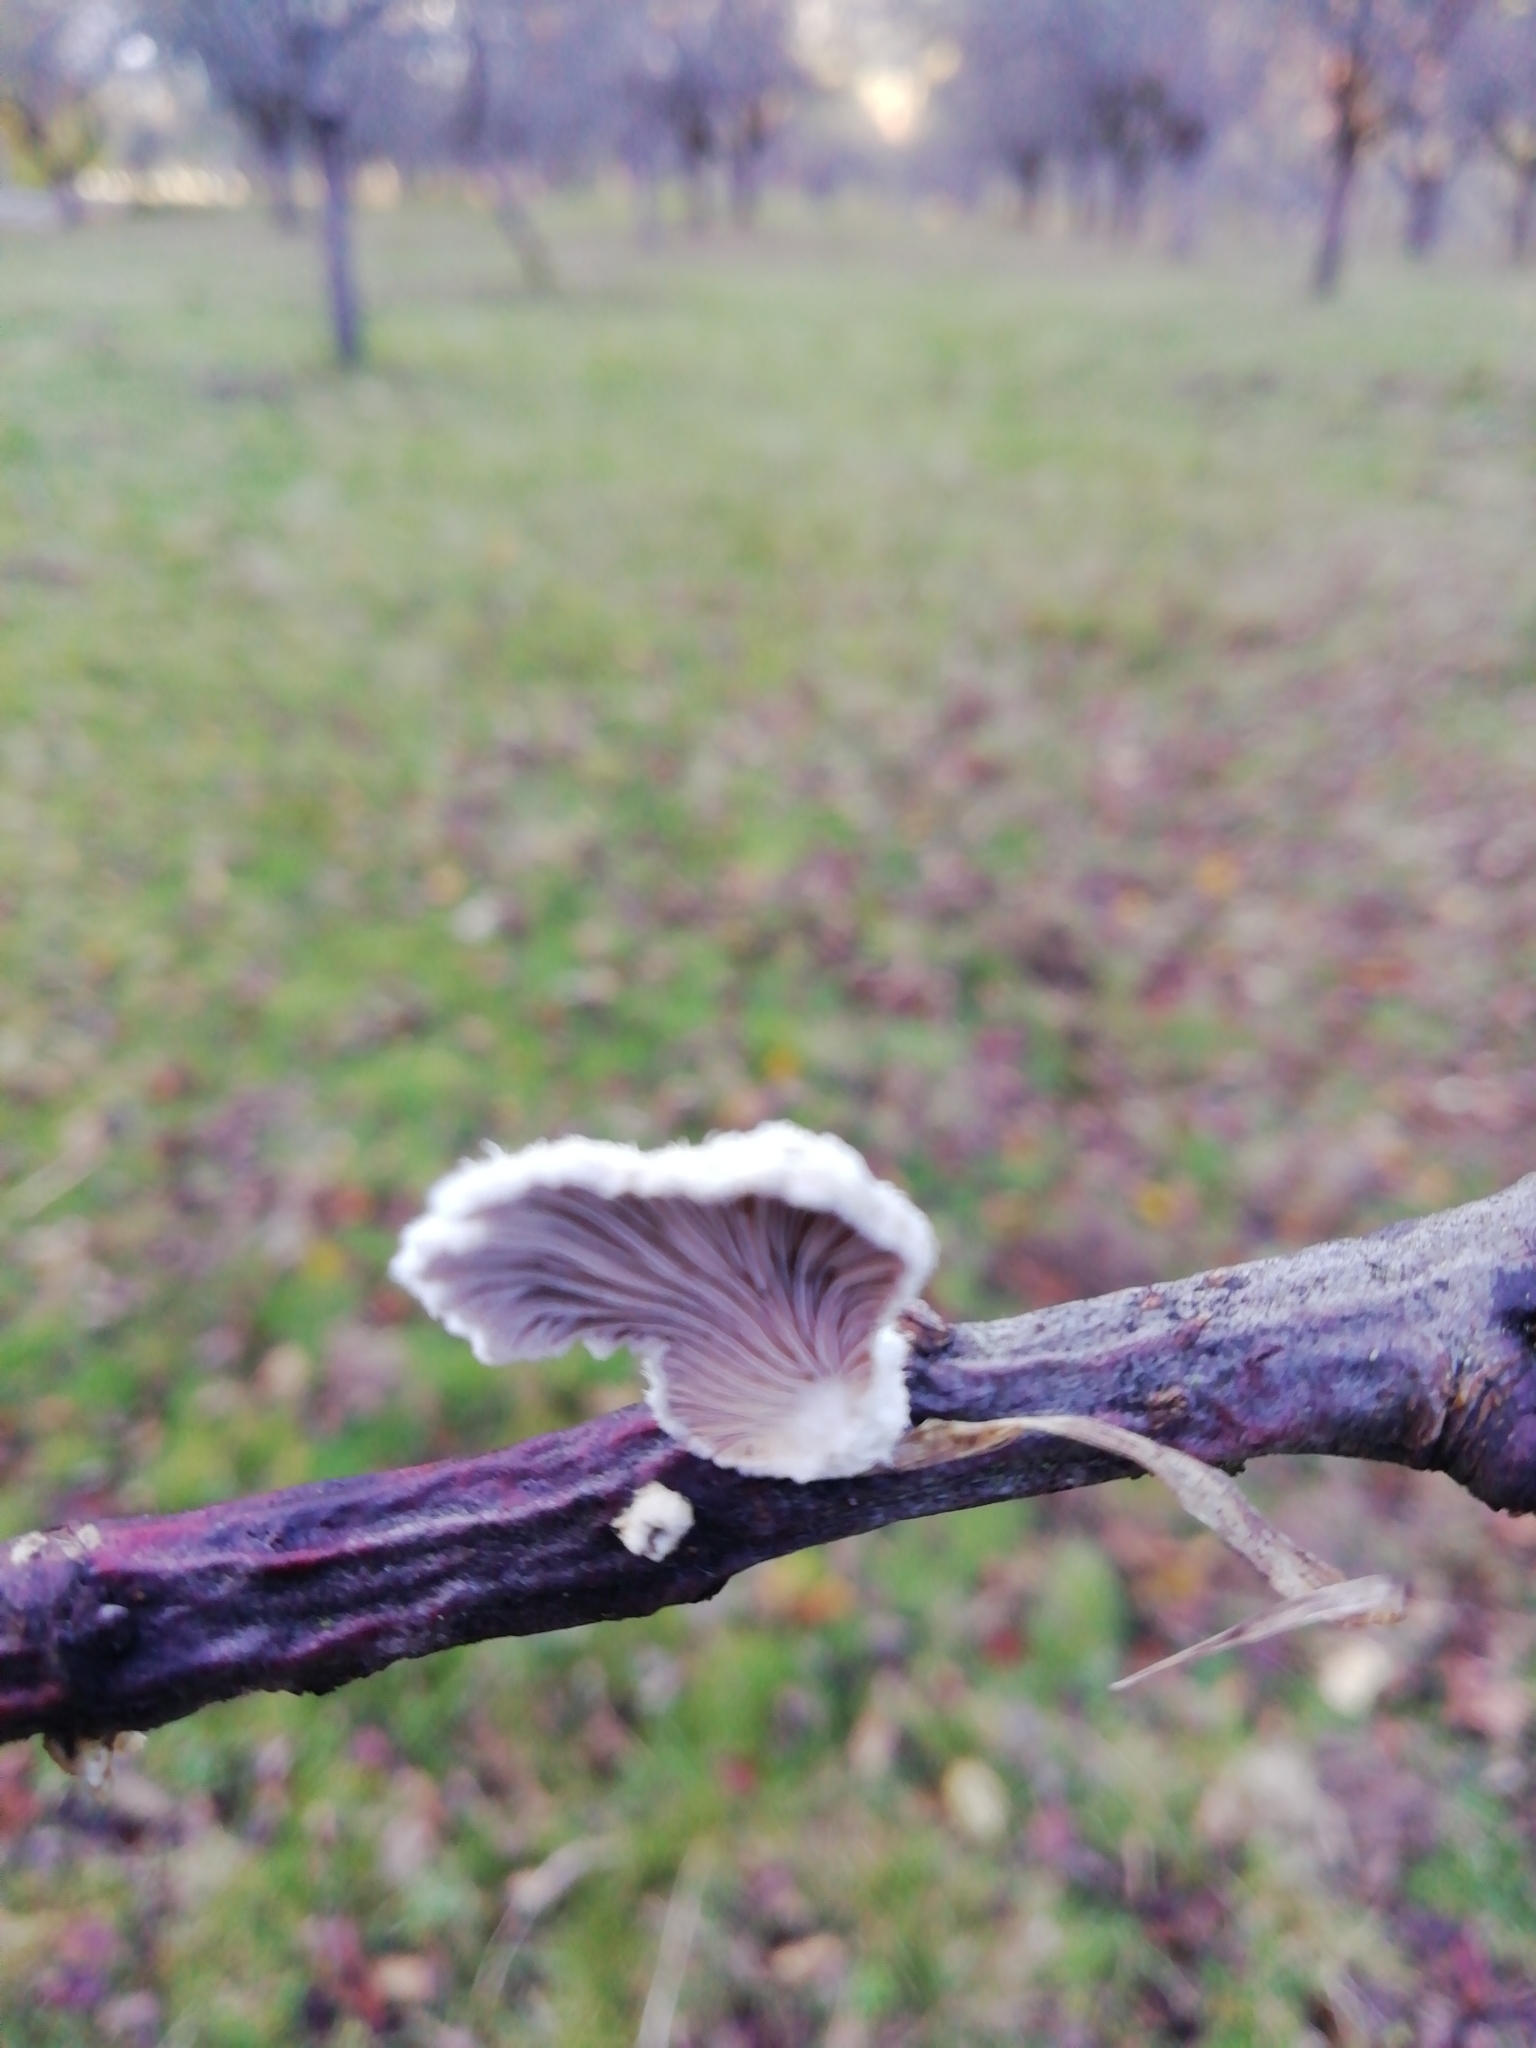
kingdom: Fungi
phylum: Basidiomycota
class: Agaricomycetes
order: Agaricales
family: Schizophyllaceae
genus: Schizophyllum
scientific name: Schizophyllum commune
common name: Common porecrust
